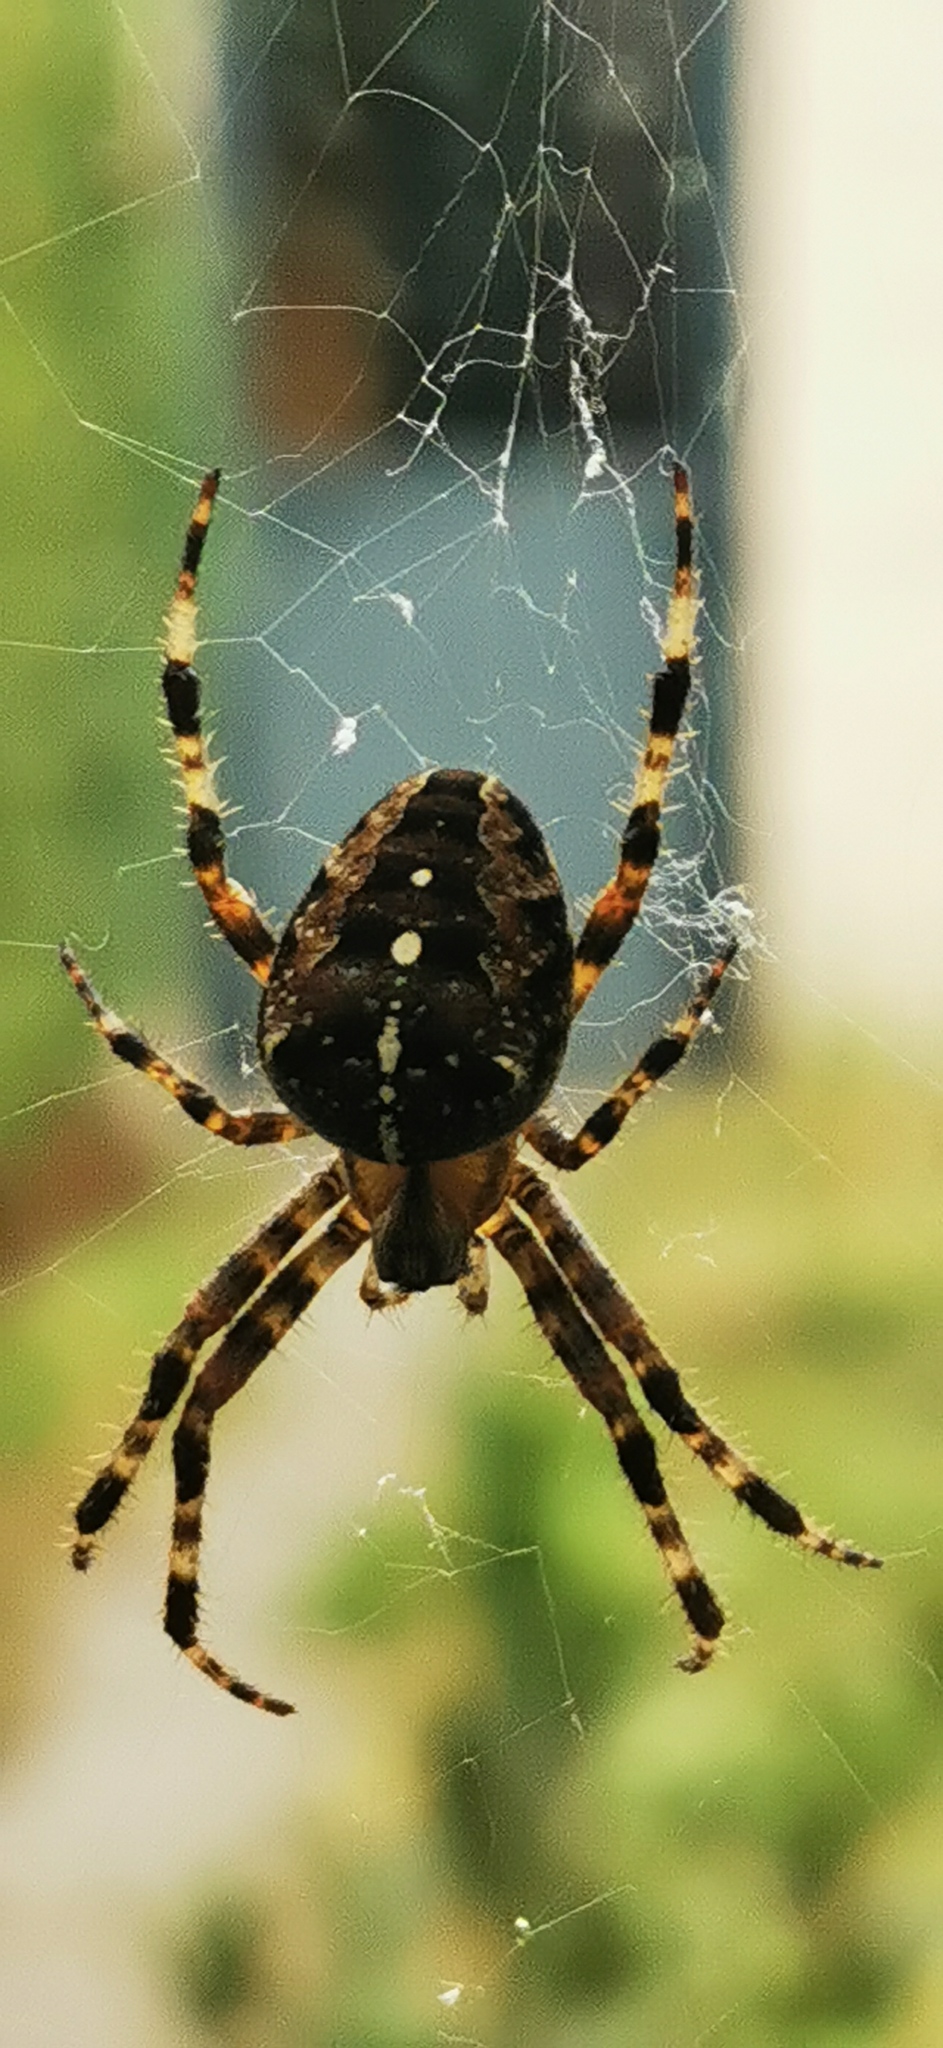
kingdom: Animalia
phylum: Arthropoda
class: Insecta
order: Hymenoptera
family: Vespidae
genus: Vespa
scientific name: Vespa velutina
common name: Asian hornet
